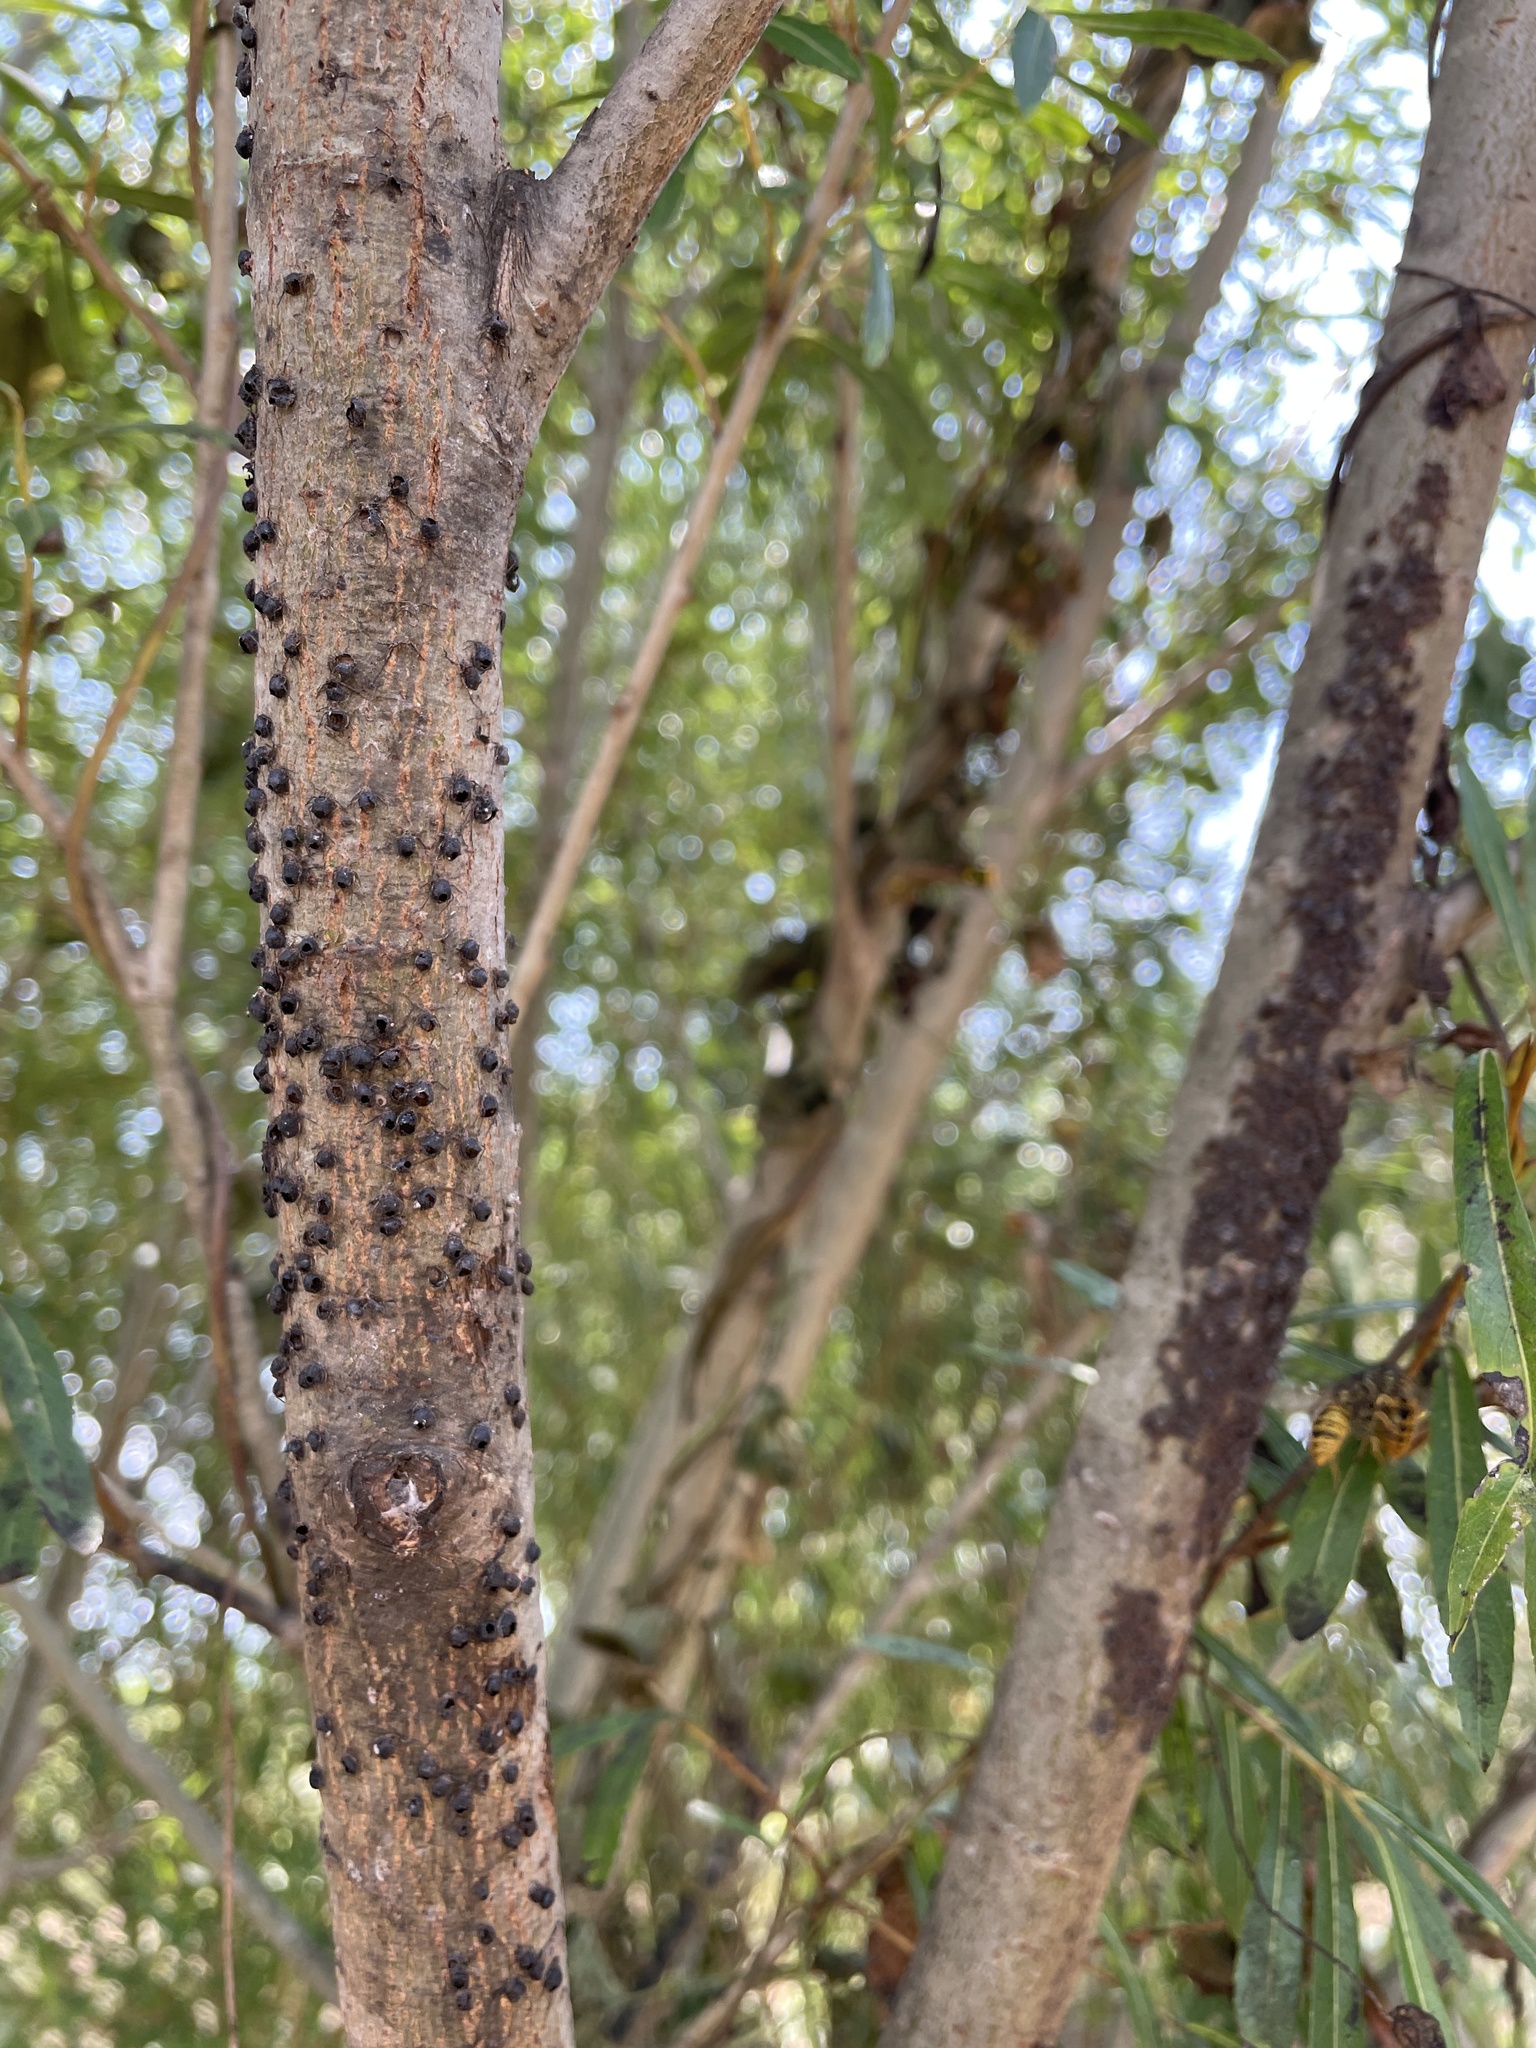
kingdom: Animalia
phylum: Arthropoda
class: Insecta
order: Hymenoptera
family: Braconidae
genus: Pauesia
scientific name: Pauesia nigrovaria
